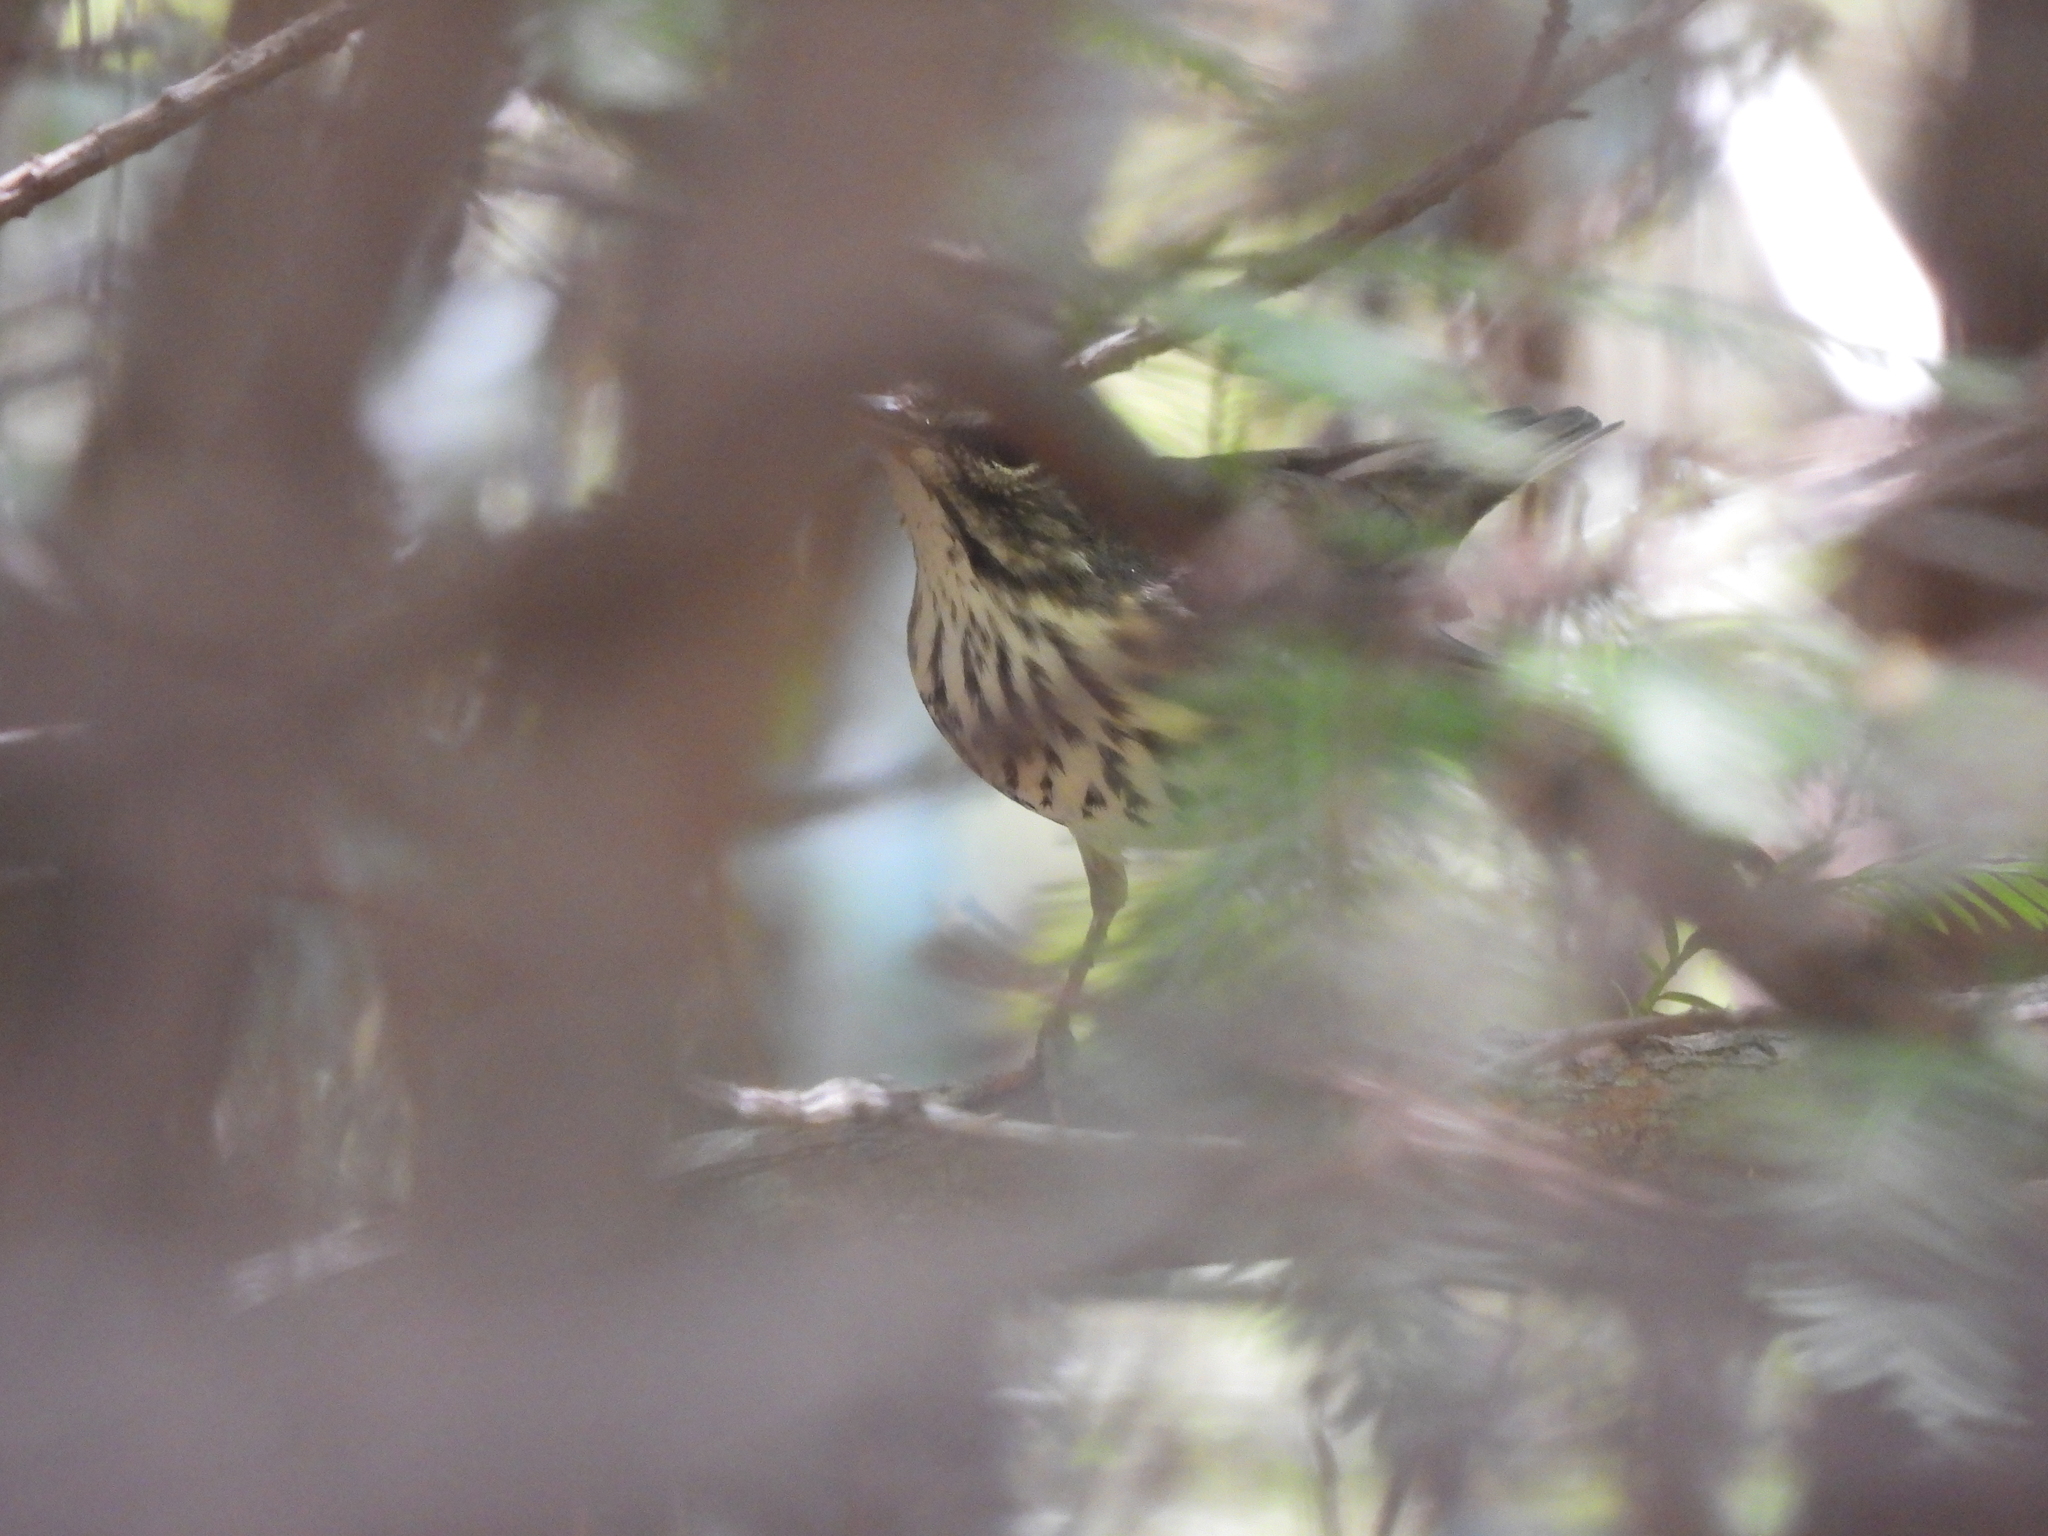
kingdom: Animalia
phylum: Chordata
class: Aves
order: Passeriformes
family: Parulidae
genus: Parkesia
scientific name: Parkesia motacilla
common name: Louisiana waterthrush
